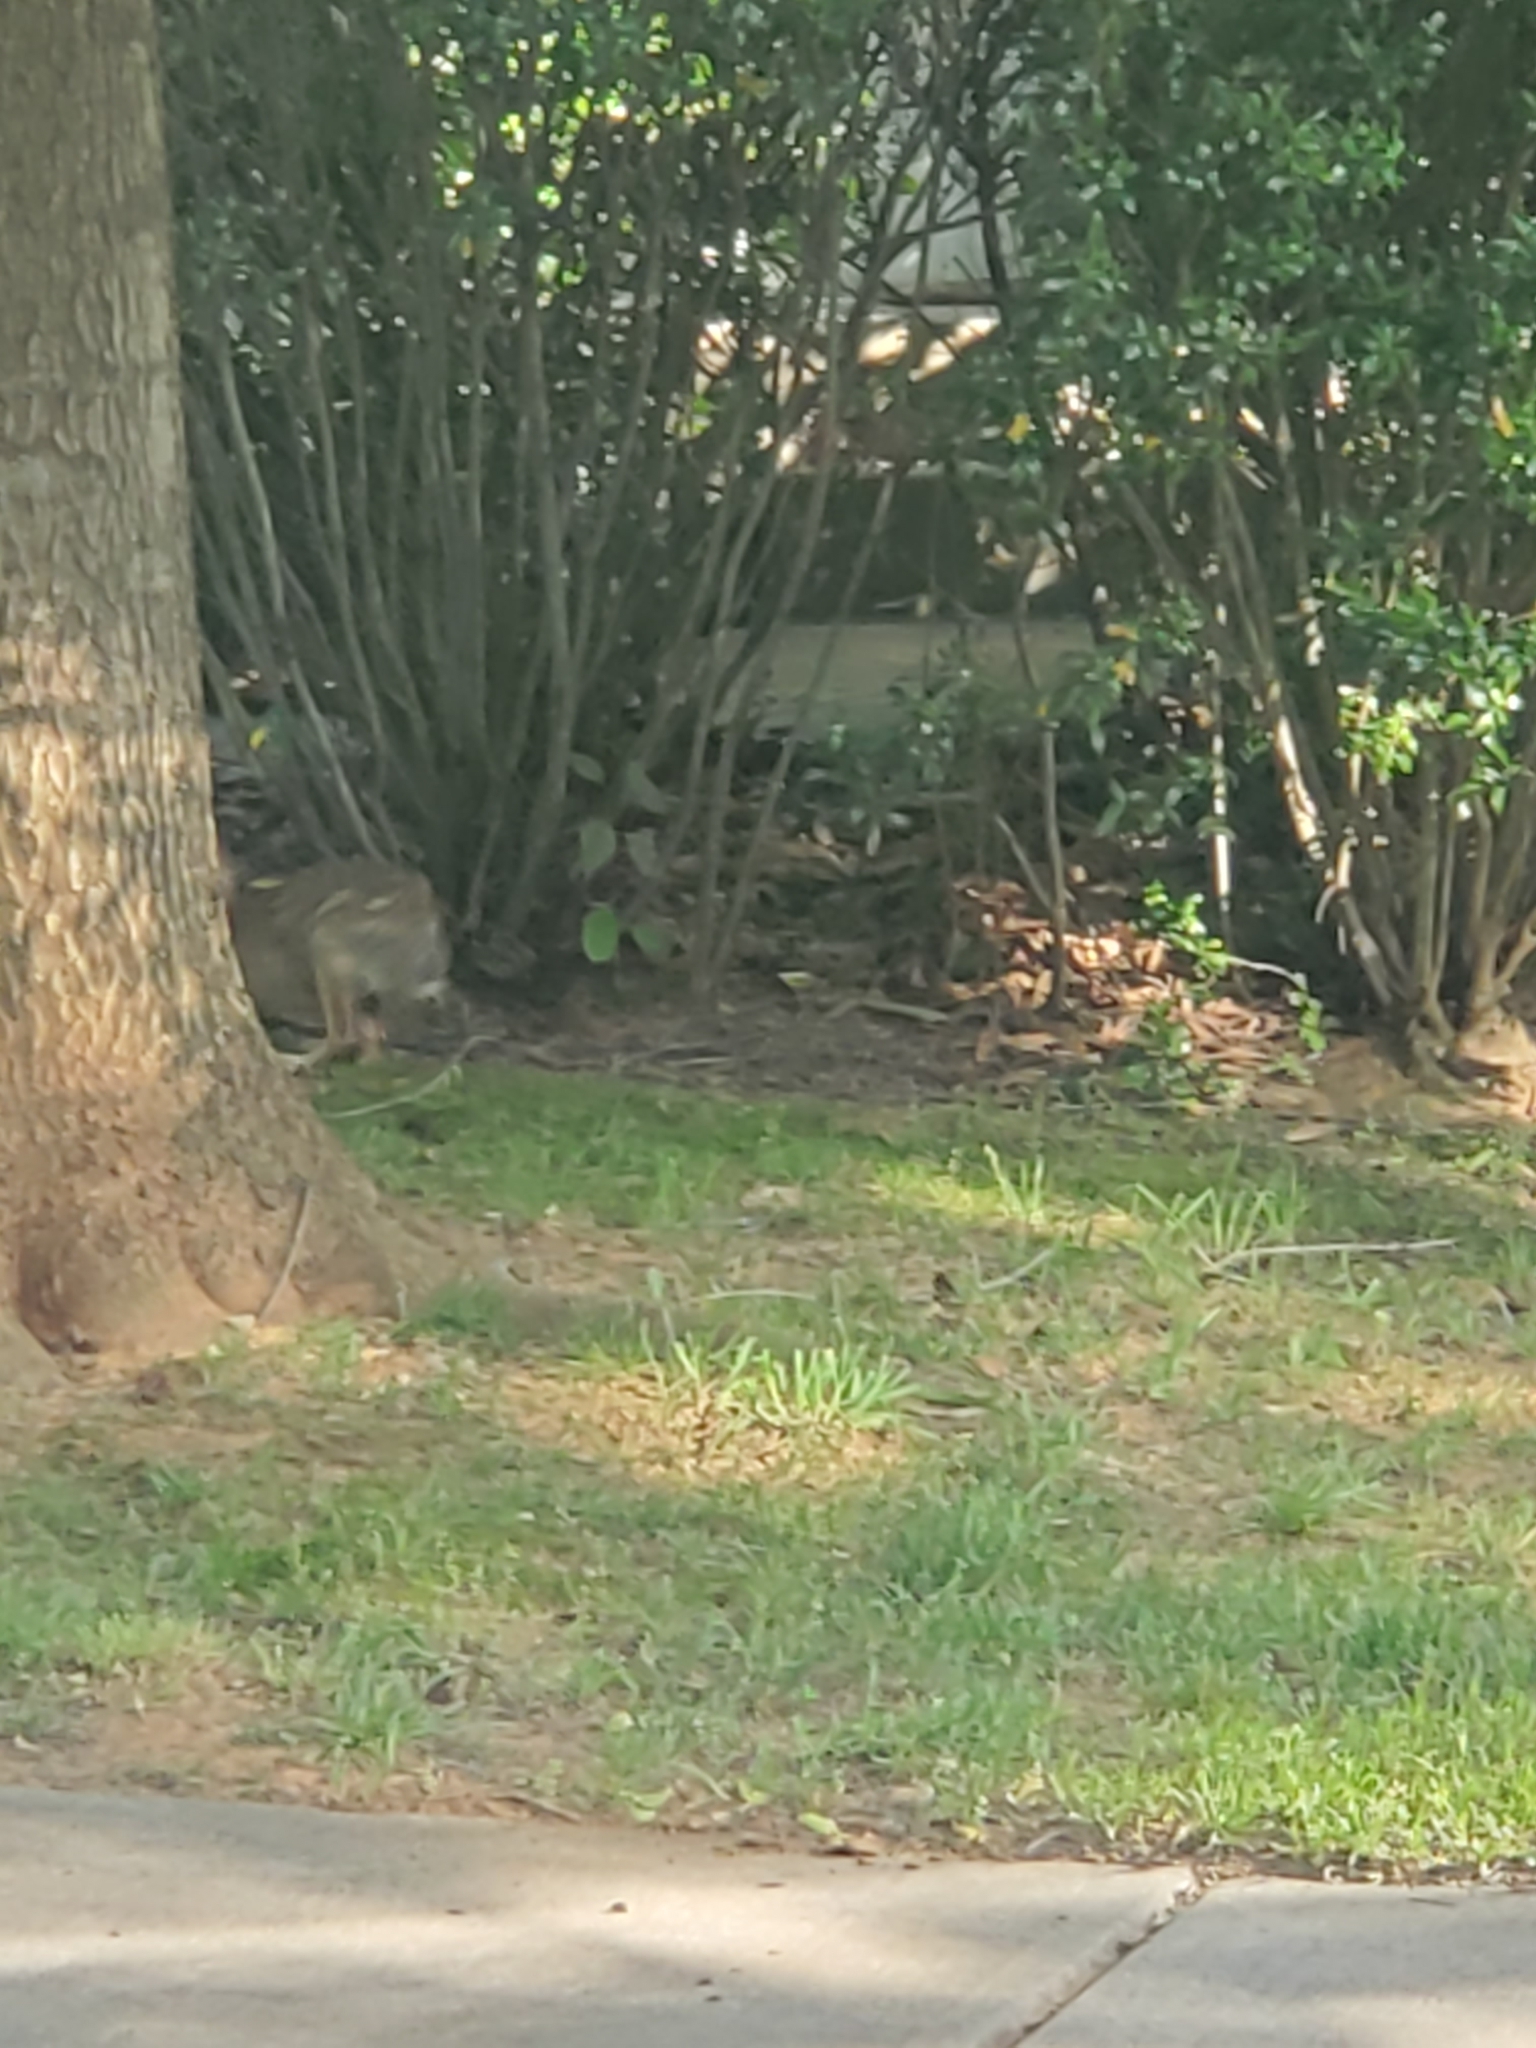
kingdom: Animalia
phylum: Chordata
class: Mammalia
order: Lagomorpha
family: Leporidae
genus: Sylvilagus
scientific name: Sylvilagus floridanus
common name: Eastern cottontail
